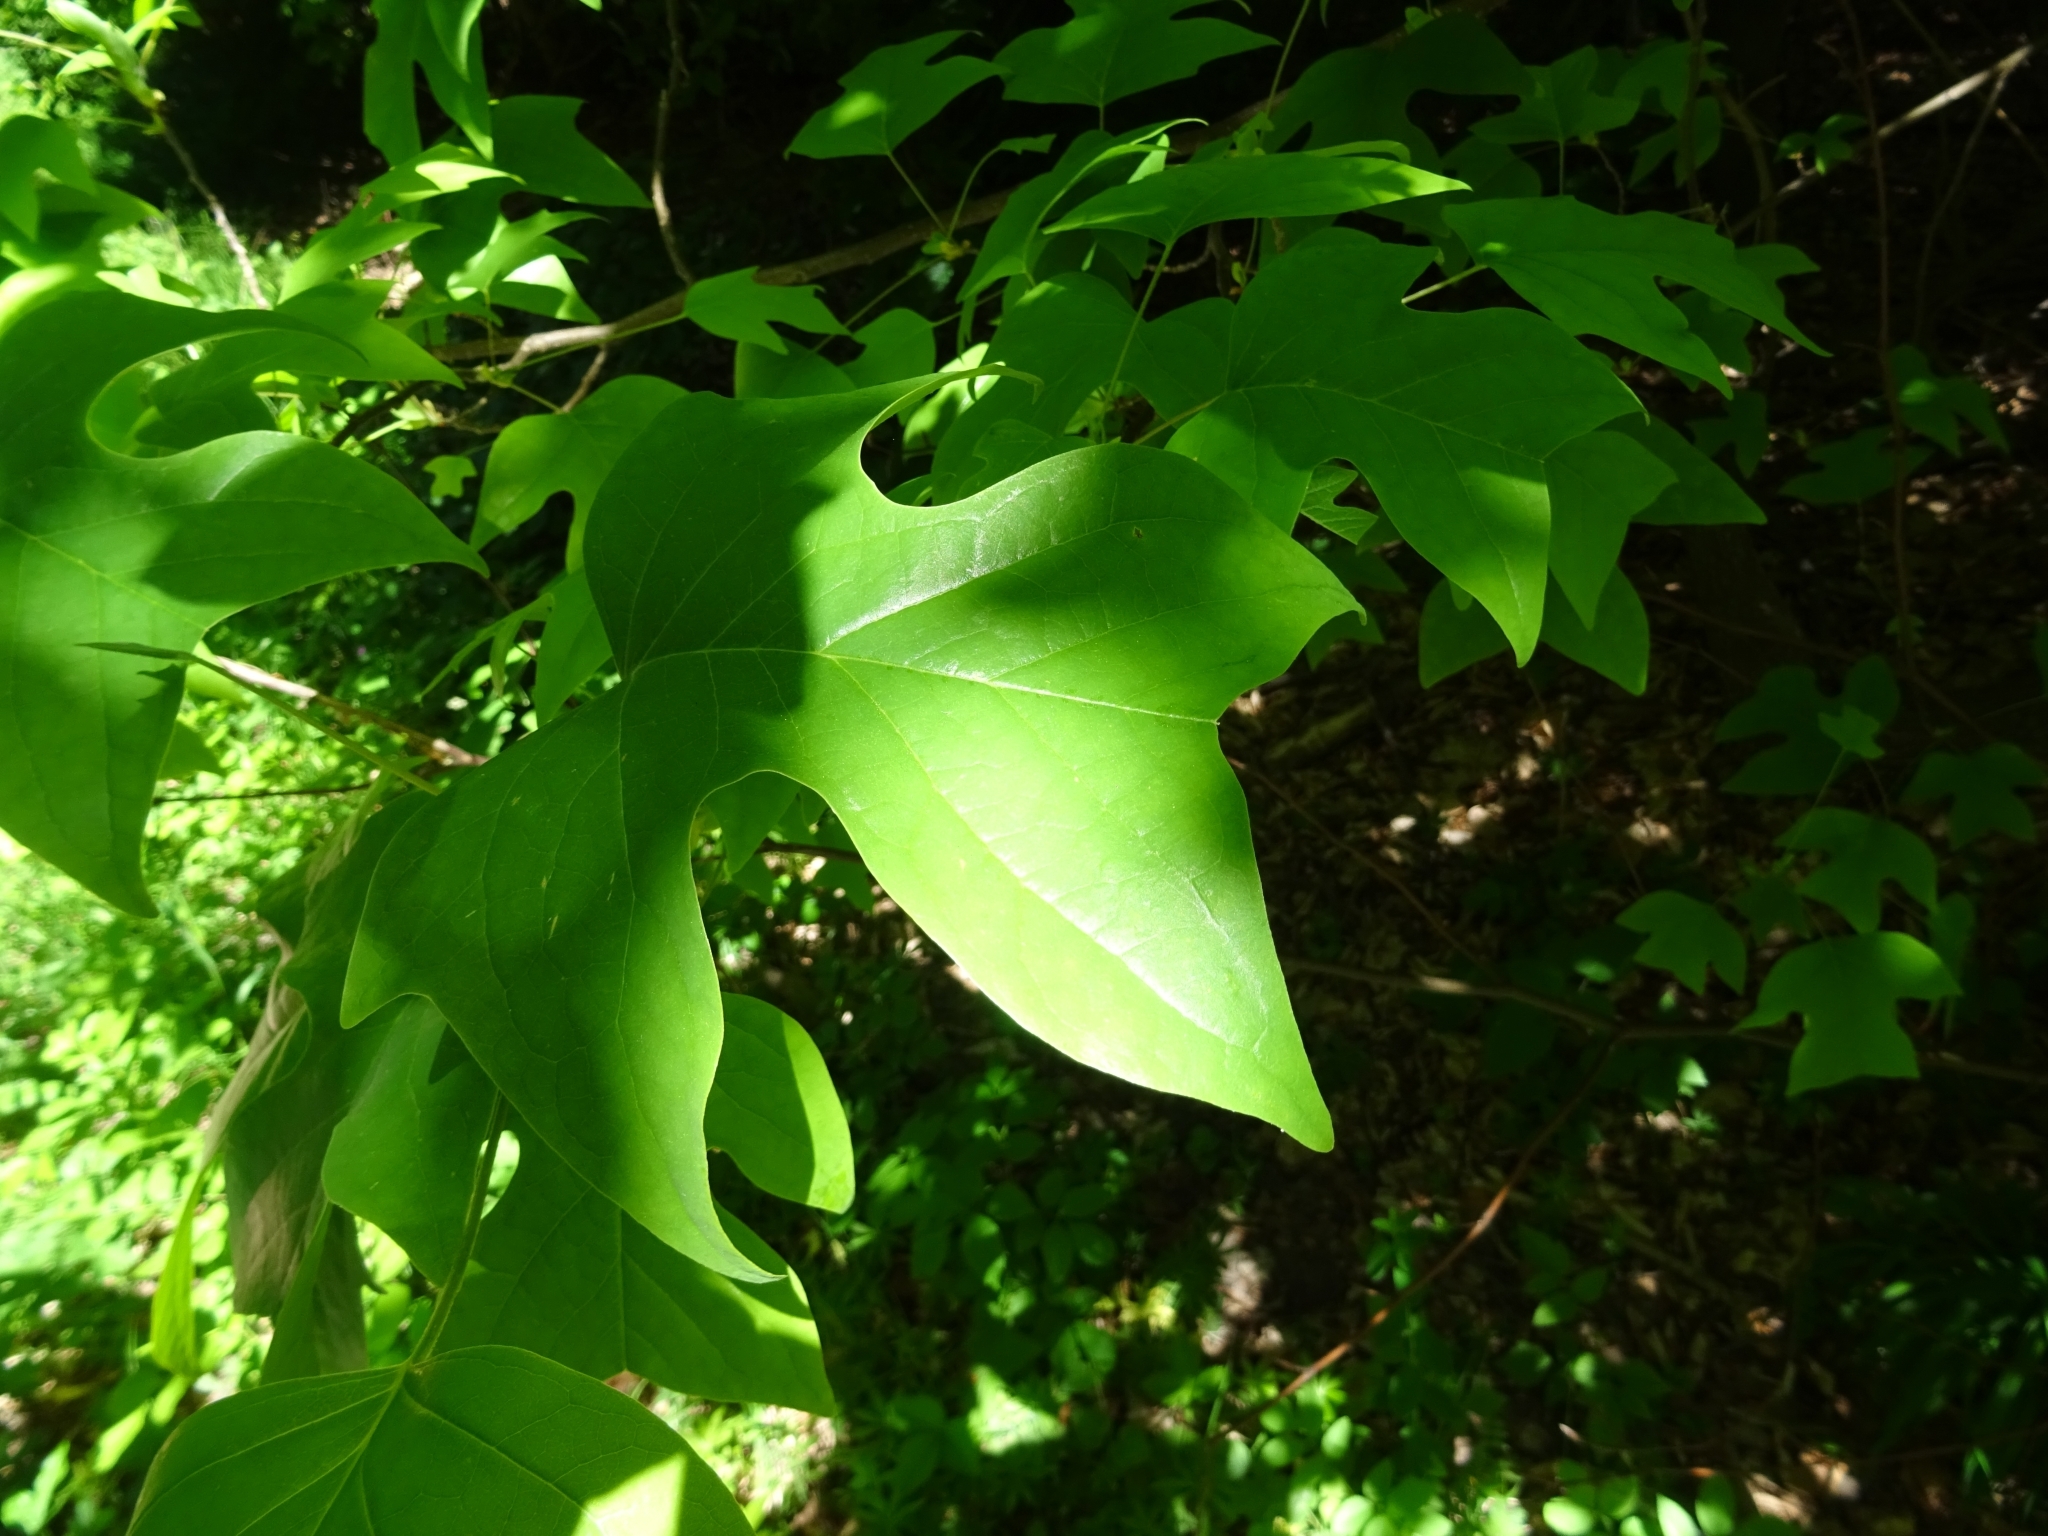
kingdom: Plantae
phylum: Tracheophyta
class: Magnoliopsida
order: Magnoliales
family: Magnoliaceae
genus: Liriodendron
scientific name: Liriodendron tulipifera
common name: Tulip tree
